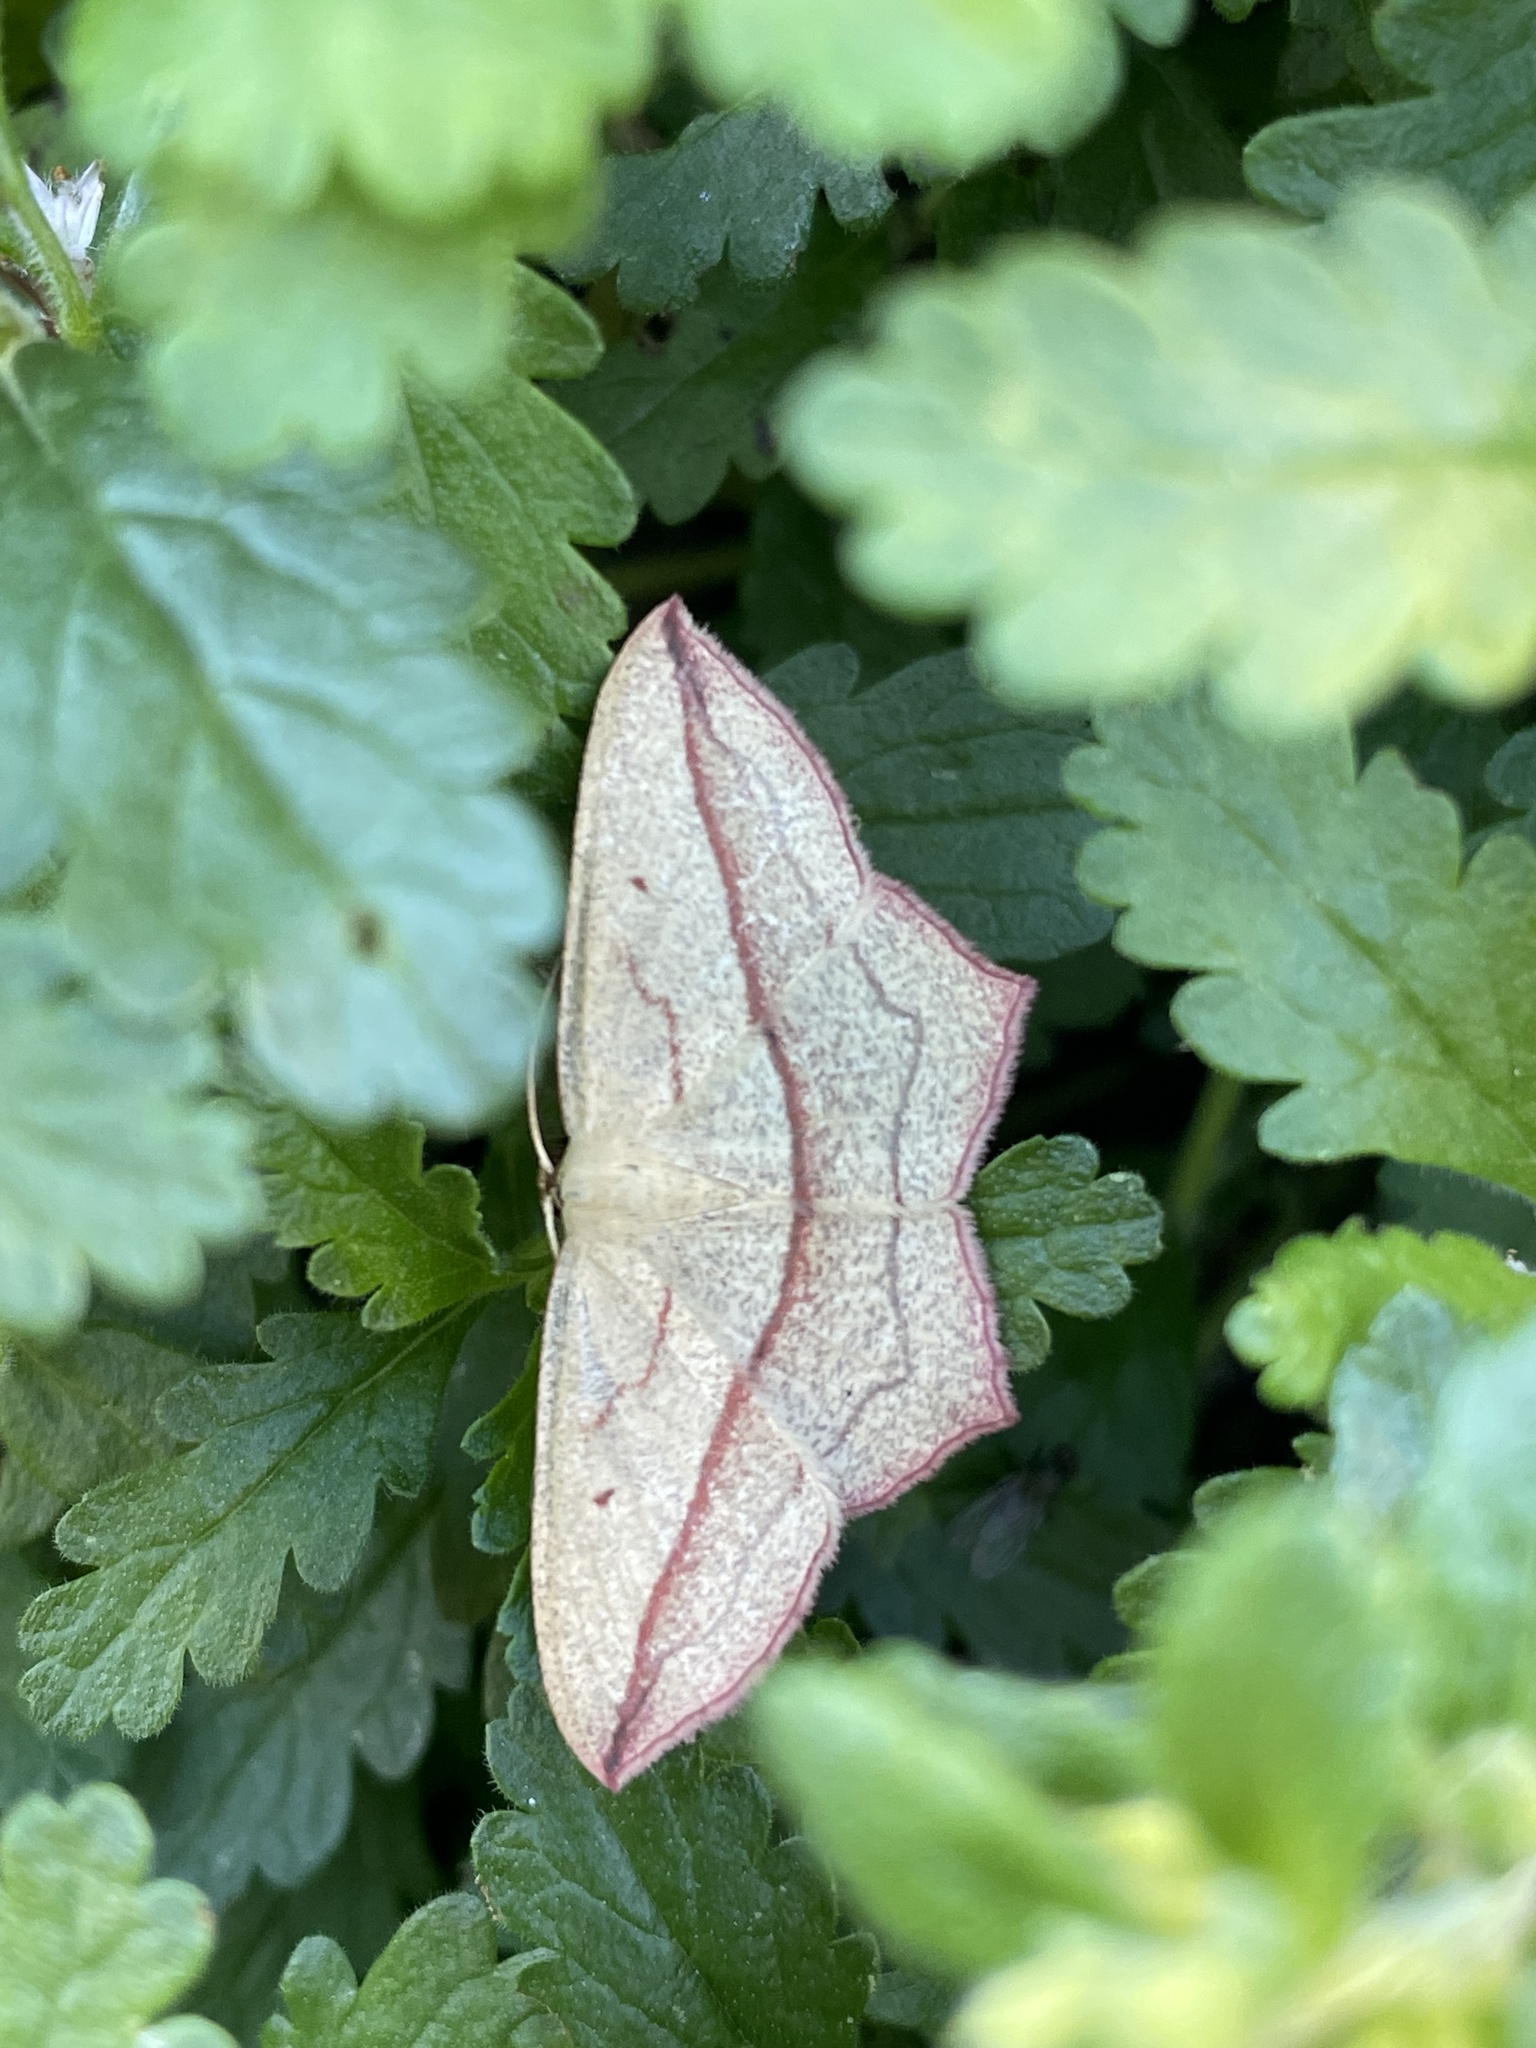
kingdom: Animalia
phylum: Arthropoda
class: Insecta
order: Lepidoptera
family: Geometridae
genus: Timandra
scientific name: Timandra comae
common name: Blood-vein
